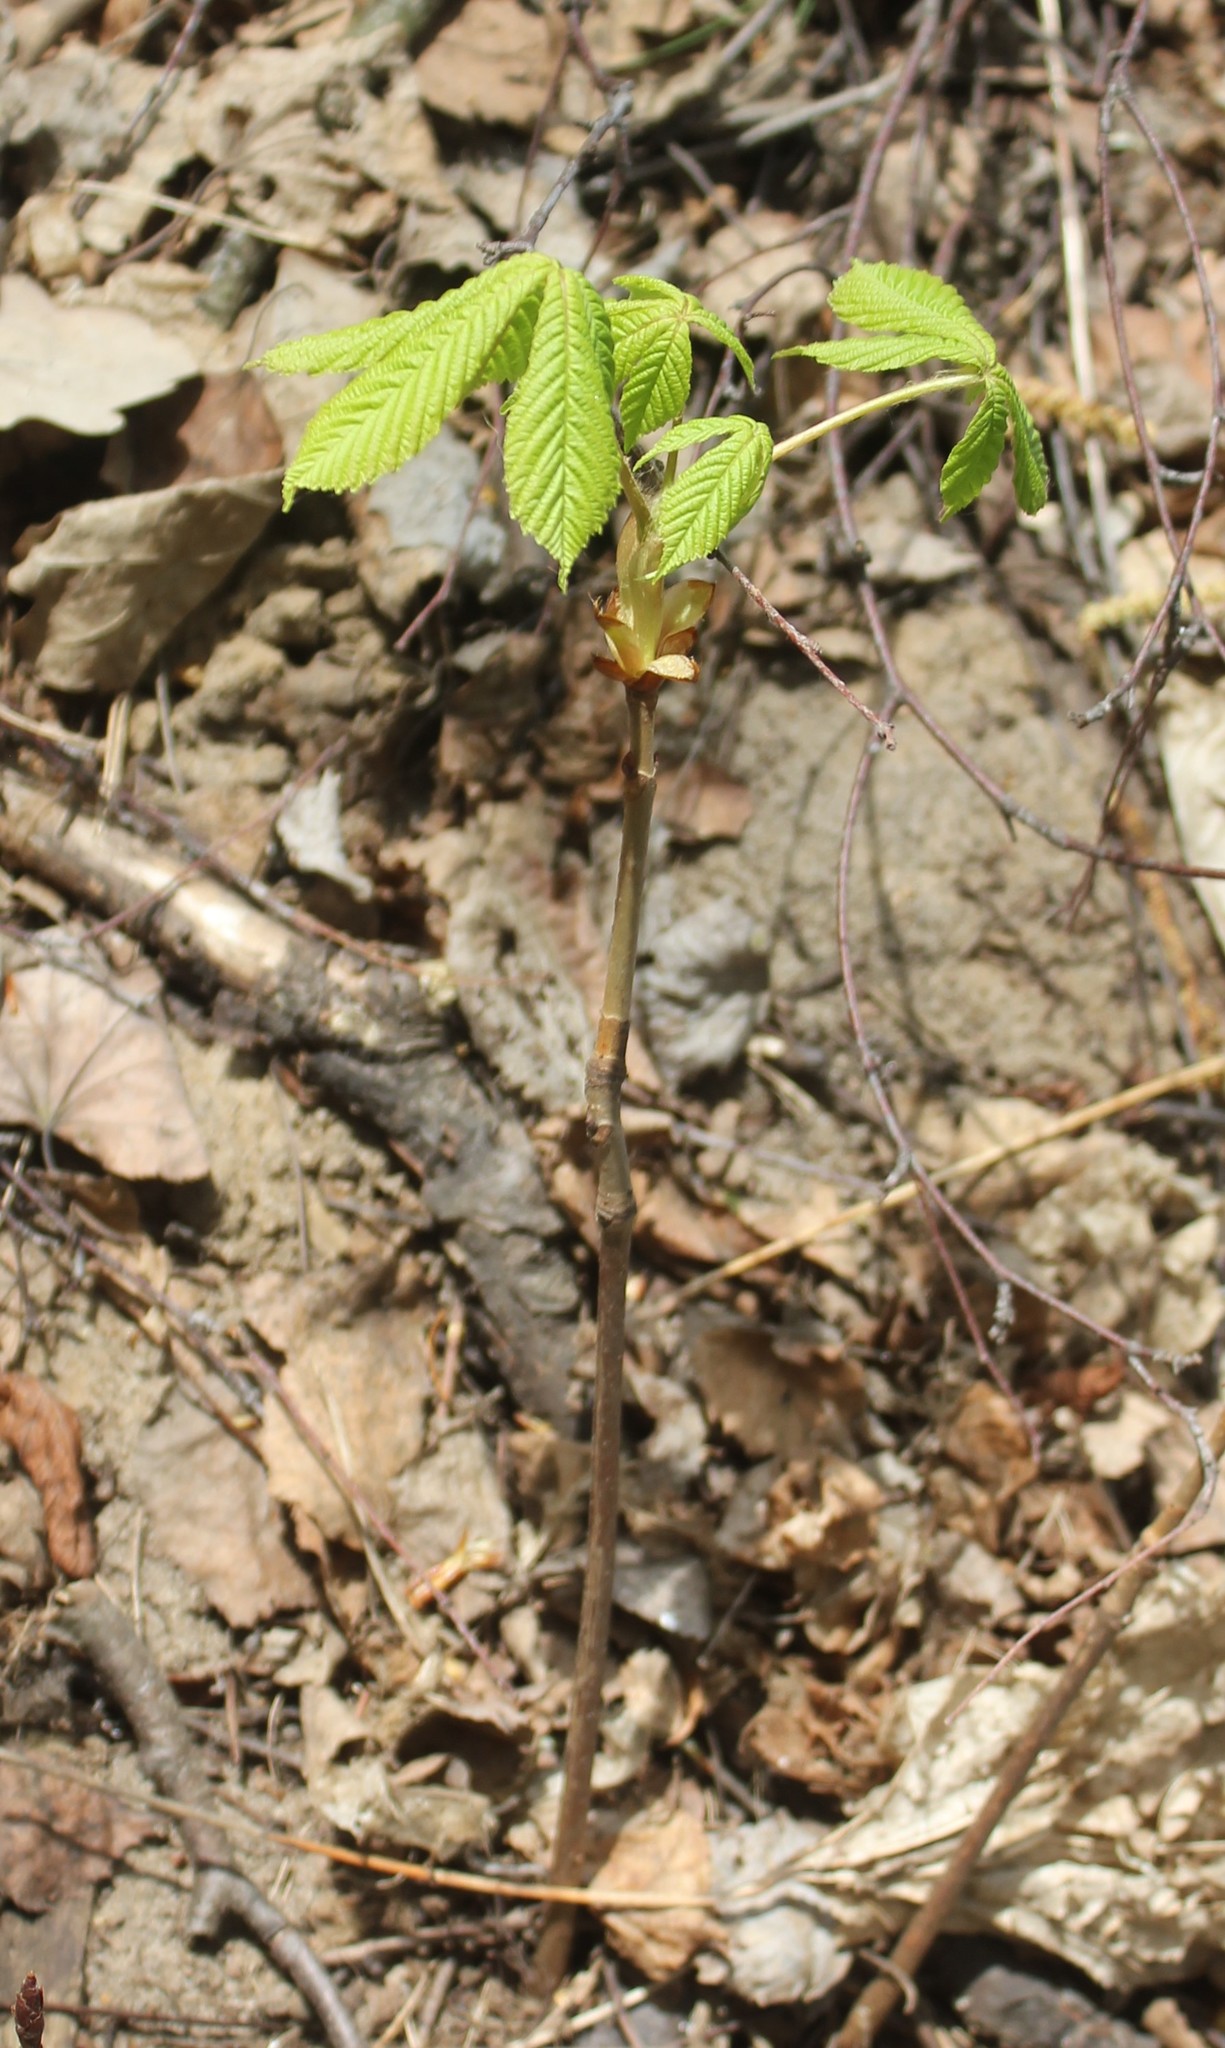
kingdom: Plantae
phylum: Tracheophyta
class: Magnoliopsida
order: Sapindales
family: Sapindaceae
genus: Aesculus
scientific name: Aesculus hippocastanum
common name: Horse-chestnut
